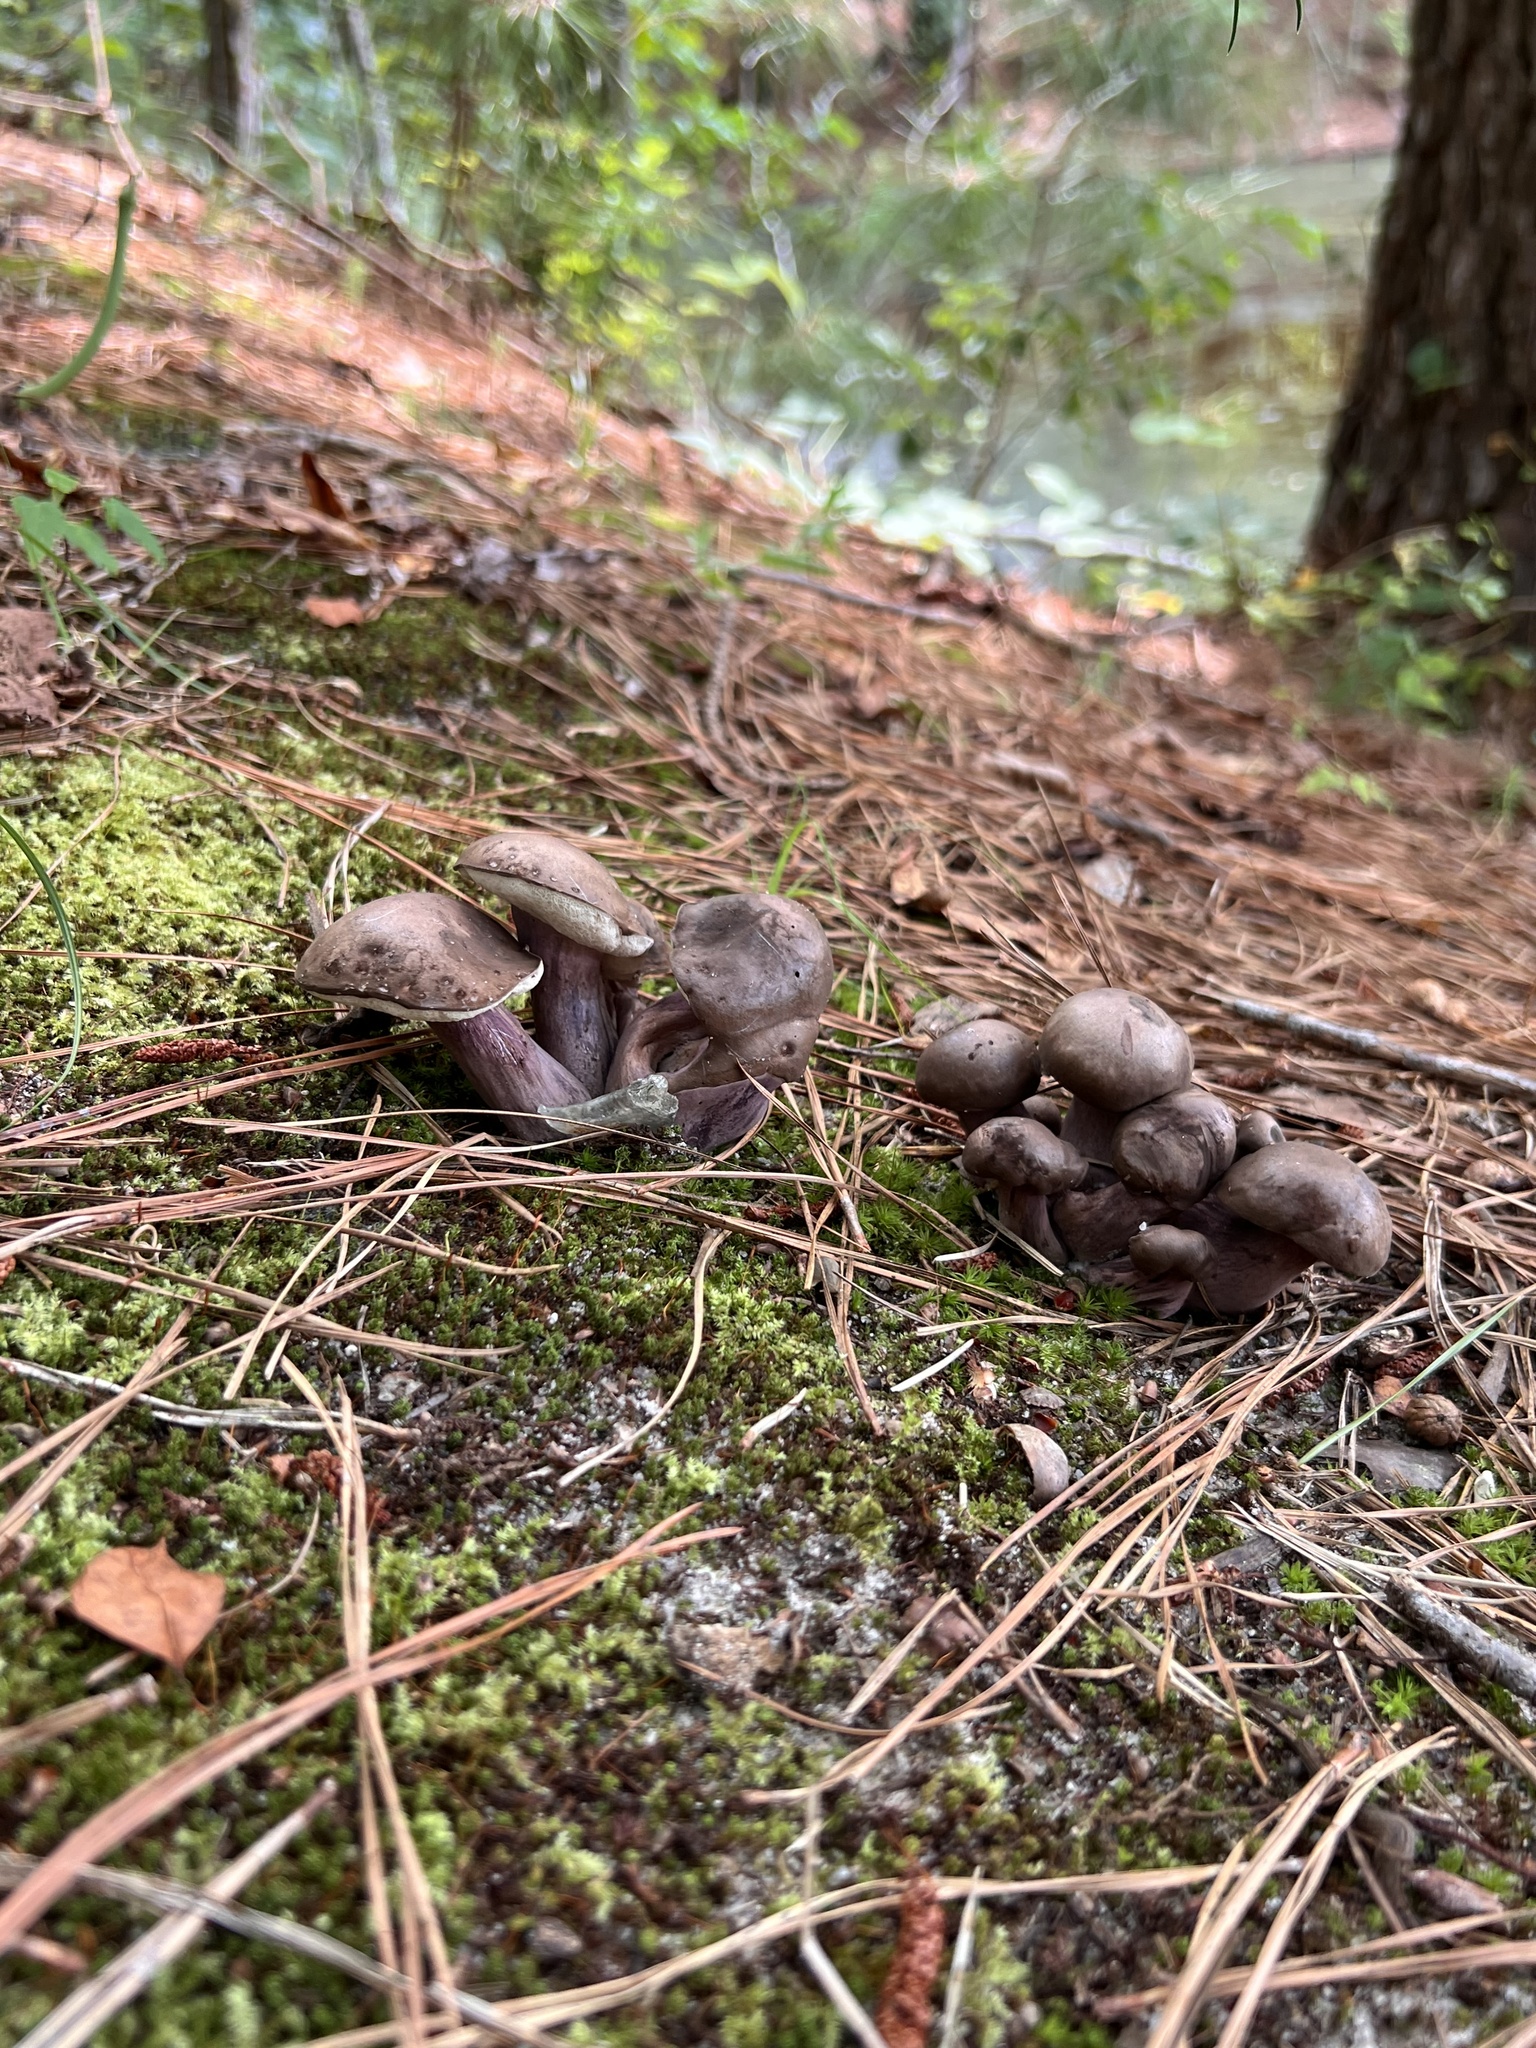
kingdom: Fungi
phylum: Basidiomycota
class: Agaricomycetes
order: Boletales
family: Boletaceae
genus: Tylopilus
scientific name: Tylopilus plumbeoviolaceus
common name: Violet gray bolete
